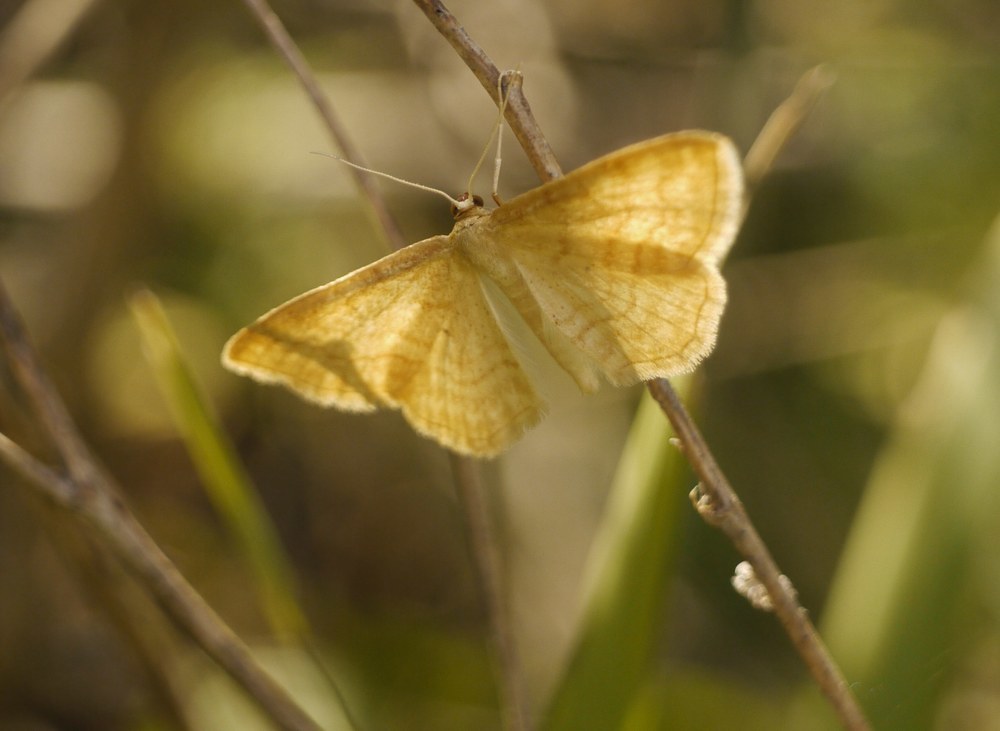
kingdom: Animalia
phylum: Arthropoda
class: Insecta
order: Lepidoptera
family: Geometridae
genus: Idaea
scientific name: Idaea ochrata
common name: Bright wave
